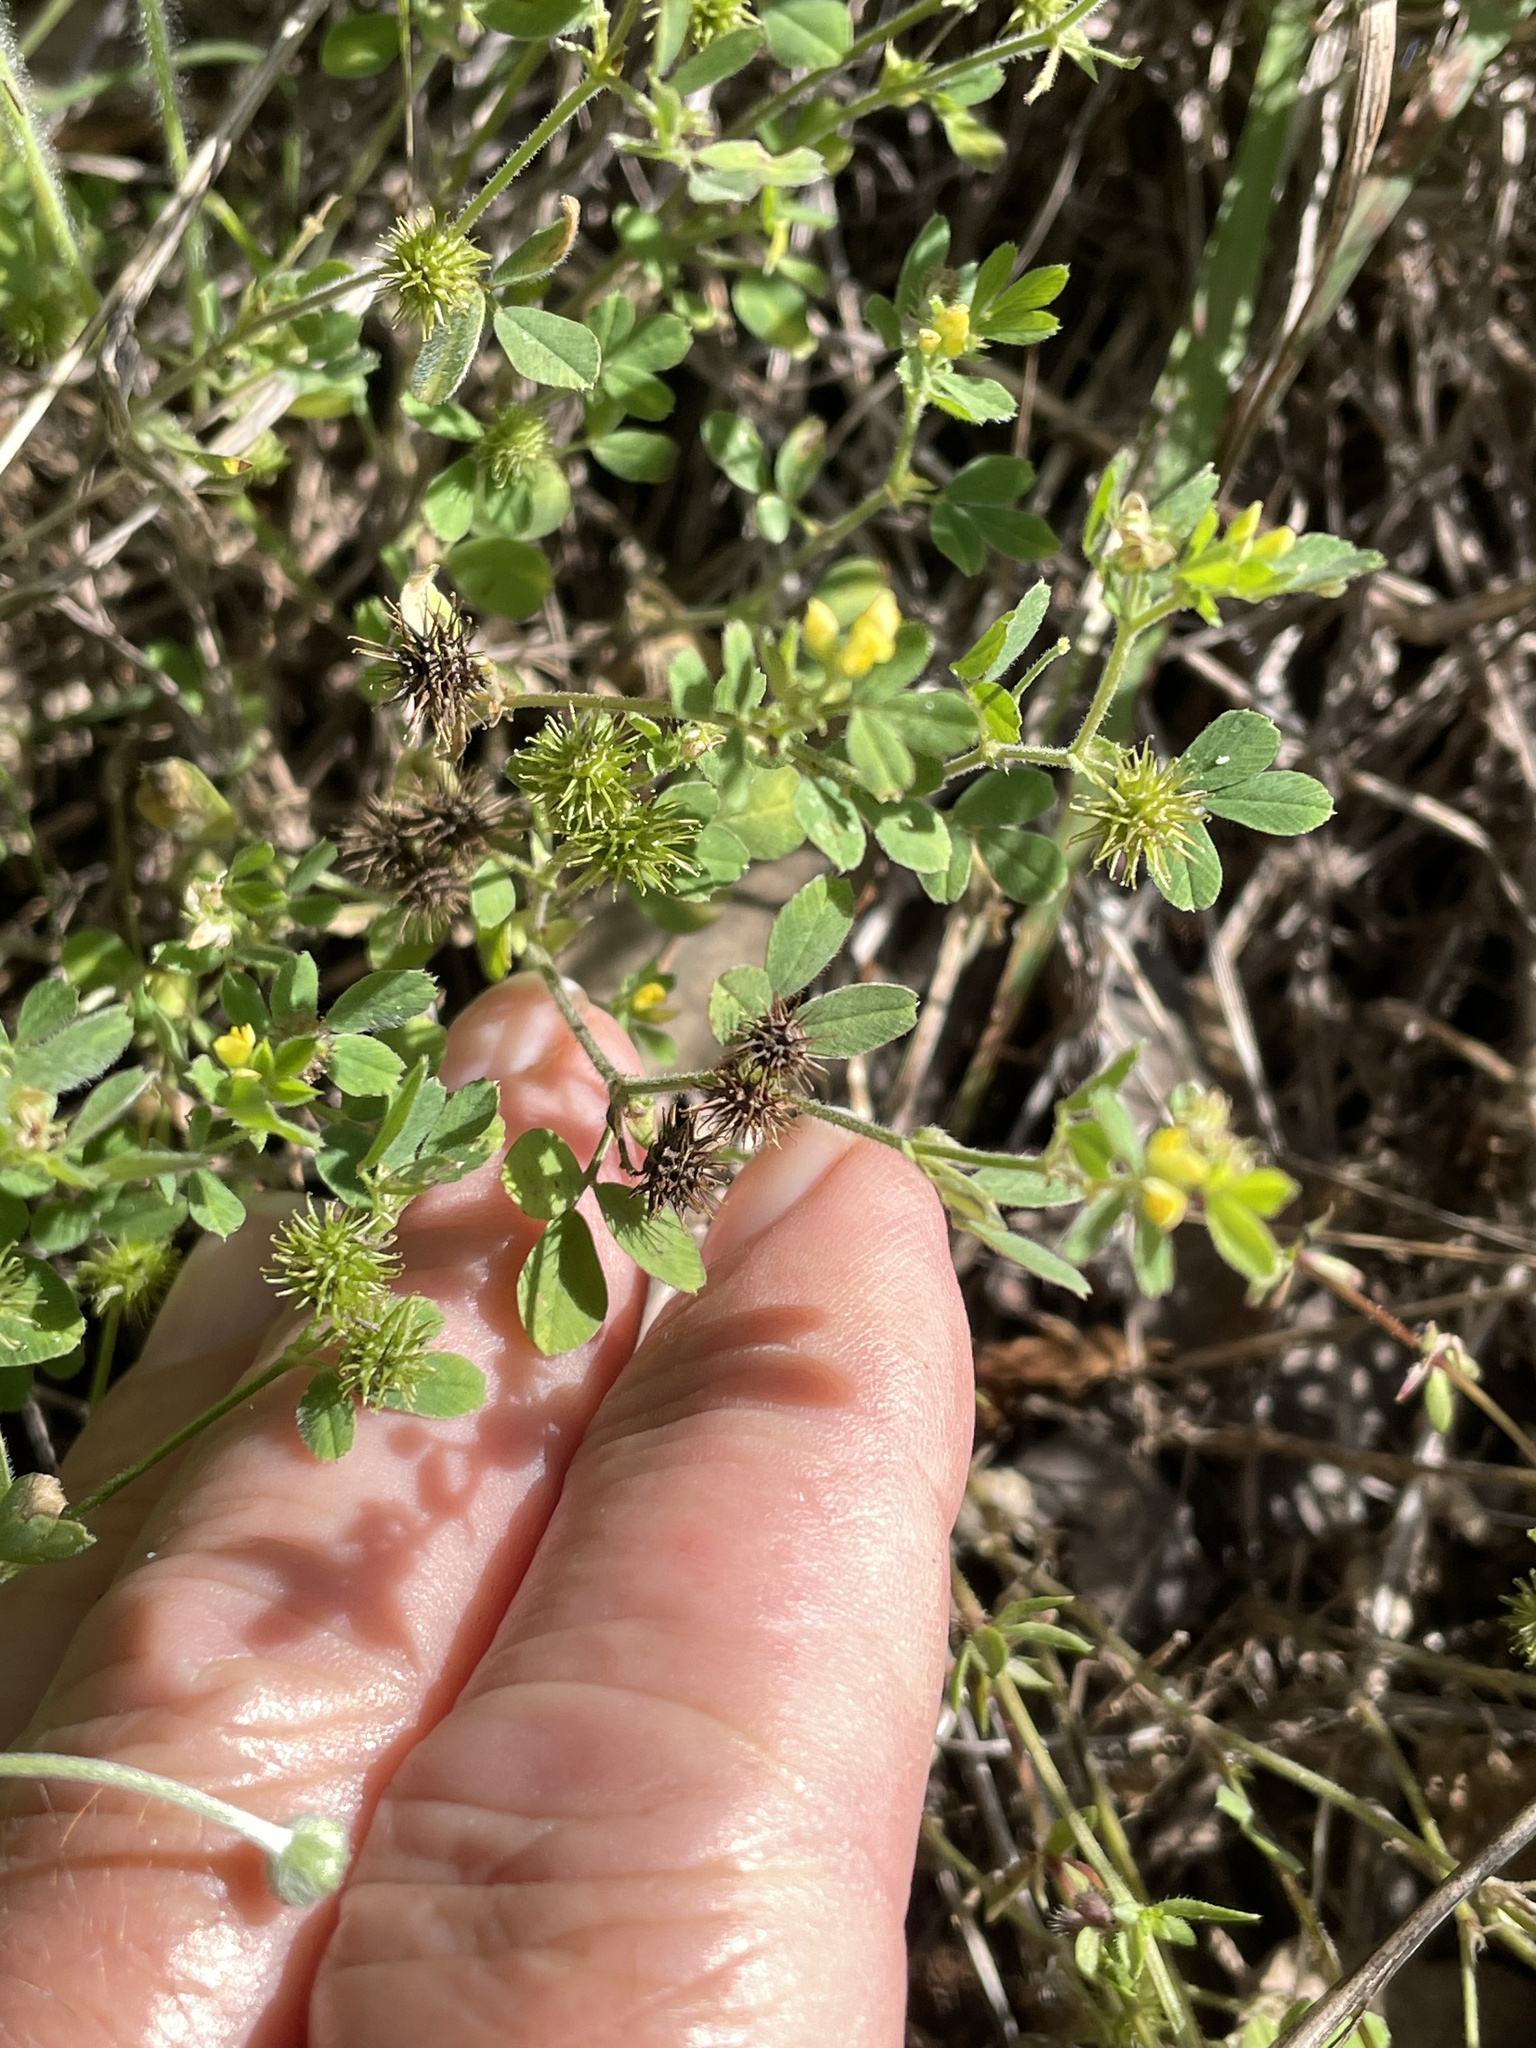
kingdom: Plantae
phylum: Tracheophyta
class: Magnoliopsida
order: Fabales
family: Fabaceae
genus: Medicago
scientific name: Medicago minima
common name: Little bur-clover
